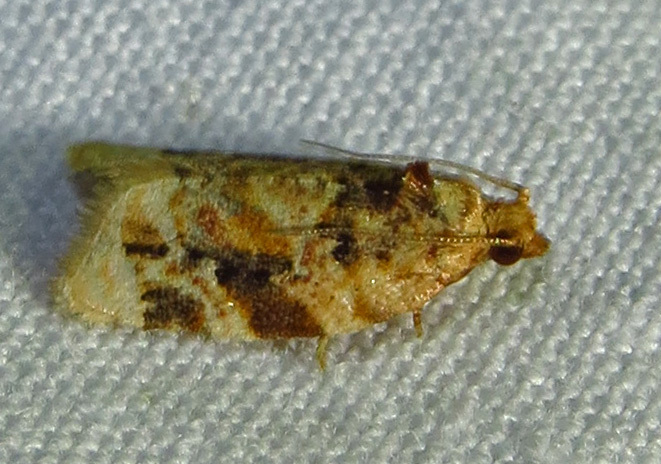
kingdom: Animalia
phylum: Arthropoda
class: Insecta
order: Lepidoptera
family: Tortricidae
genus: Argyrotaenia
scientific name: Argyrotaenia velutinana
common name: Red-banded leafroller moth
